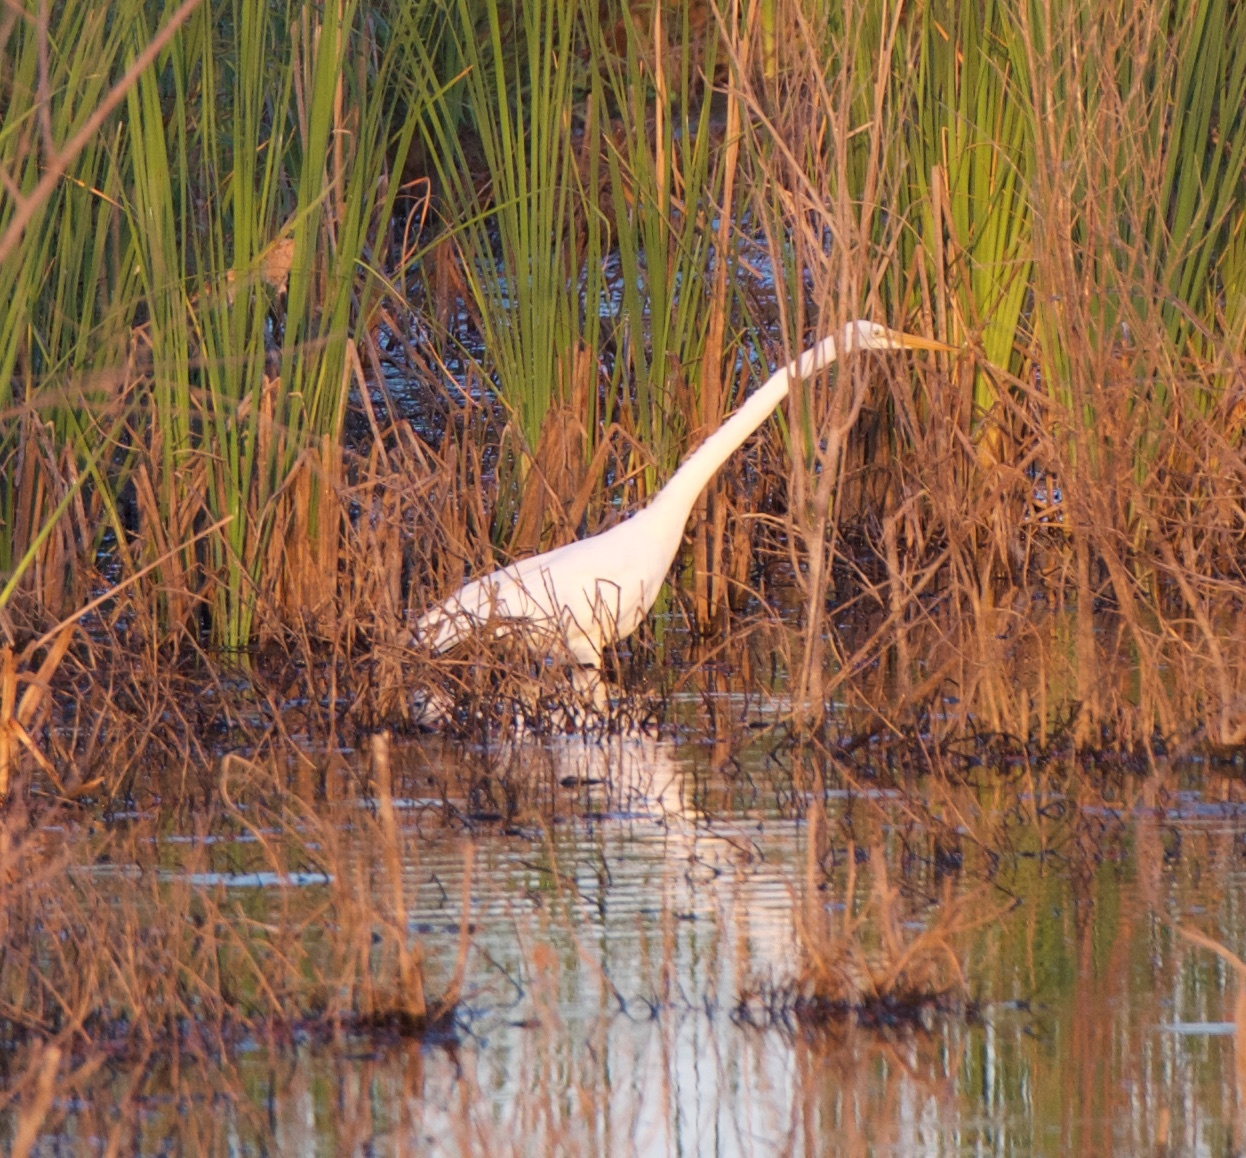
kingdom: Animalia
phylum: Chordata
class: Aves
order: Pelecaniformes
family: Ardeidae
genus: Ardea
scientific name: Ardea alba
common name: Great egret
